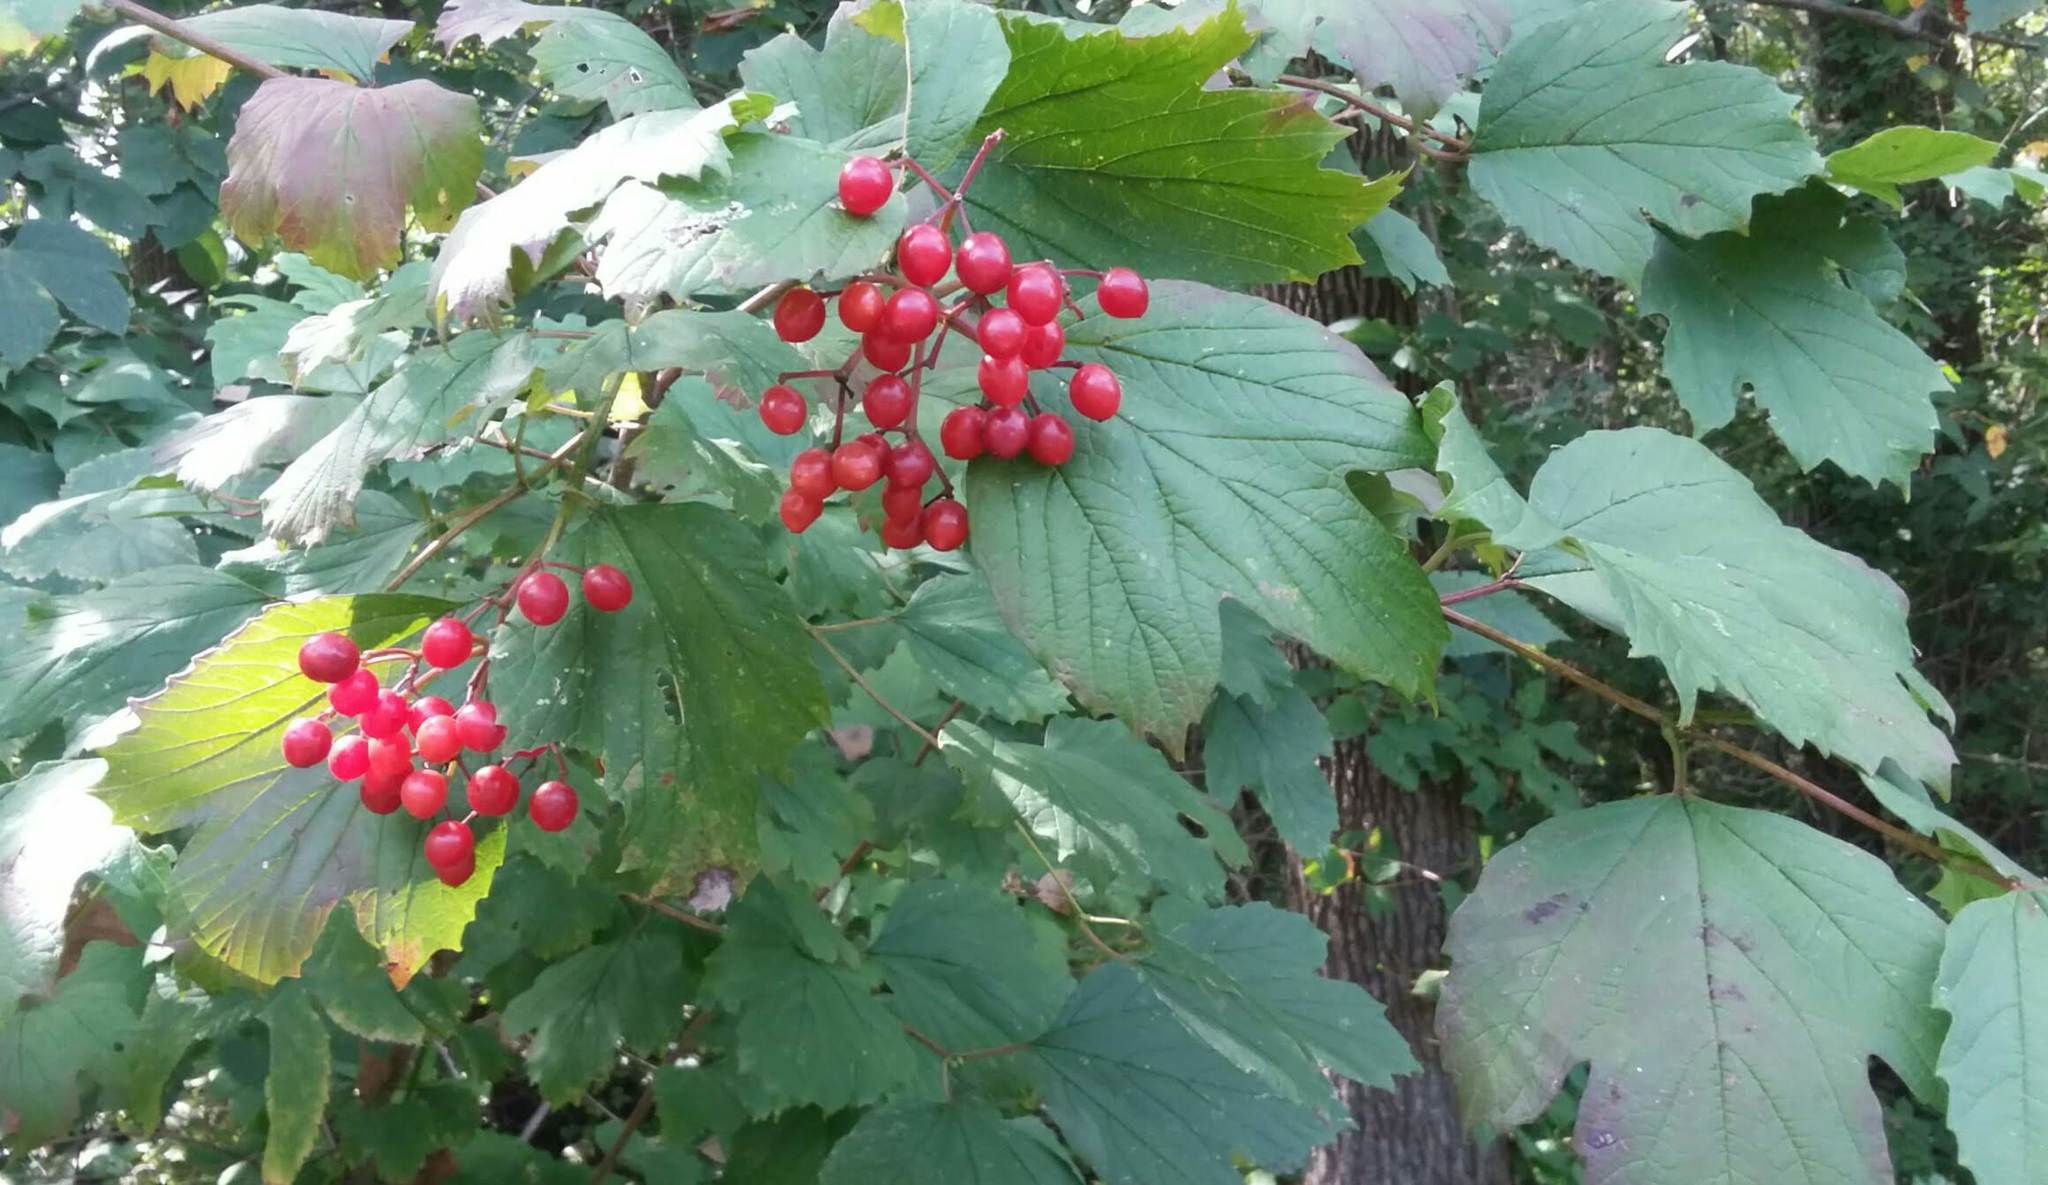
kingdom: Plantae
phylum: Tracheophyta
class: Magnoliopsida
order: Dipsacales
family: Viburnaceae
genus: Viburnum
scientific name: Viburnum opulus
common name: Guelder-rose
